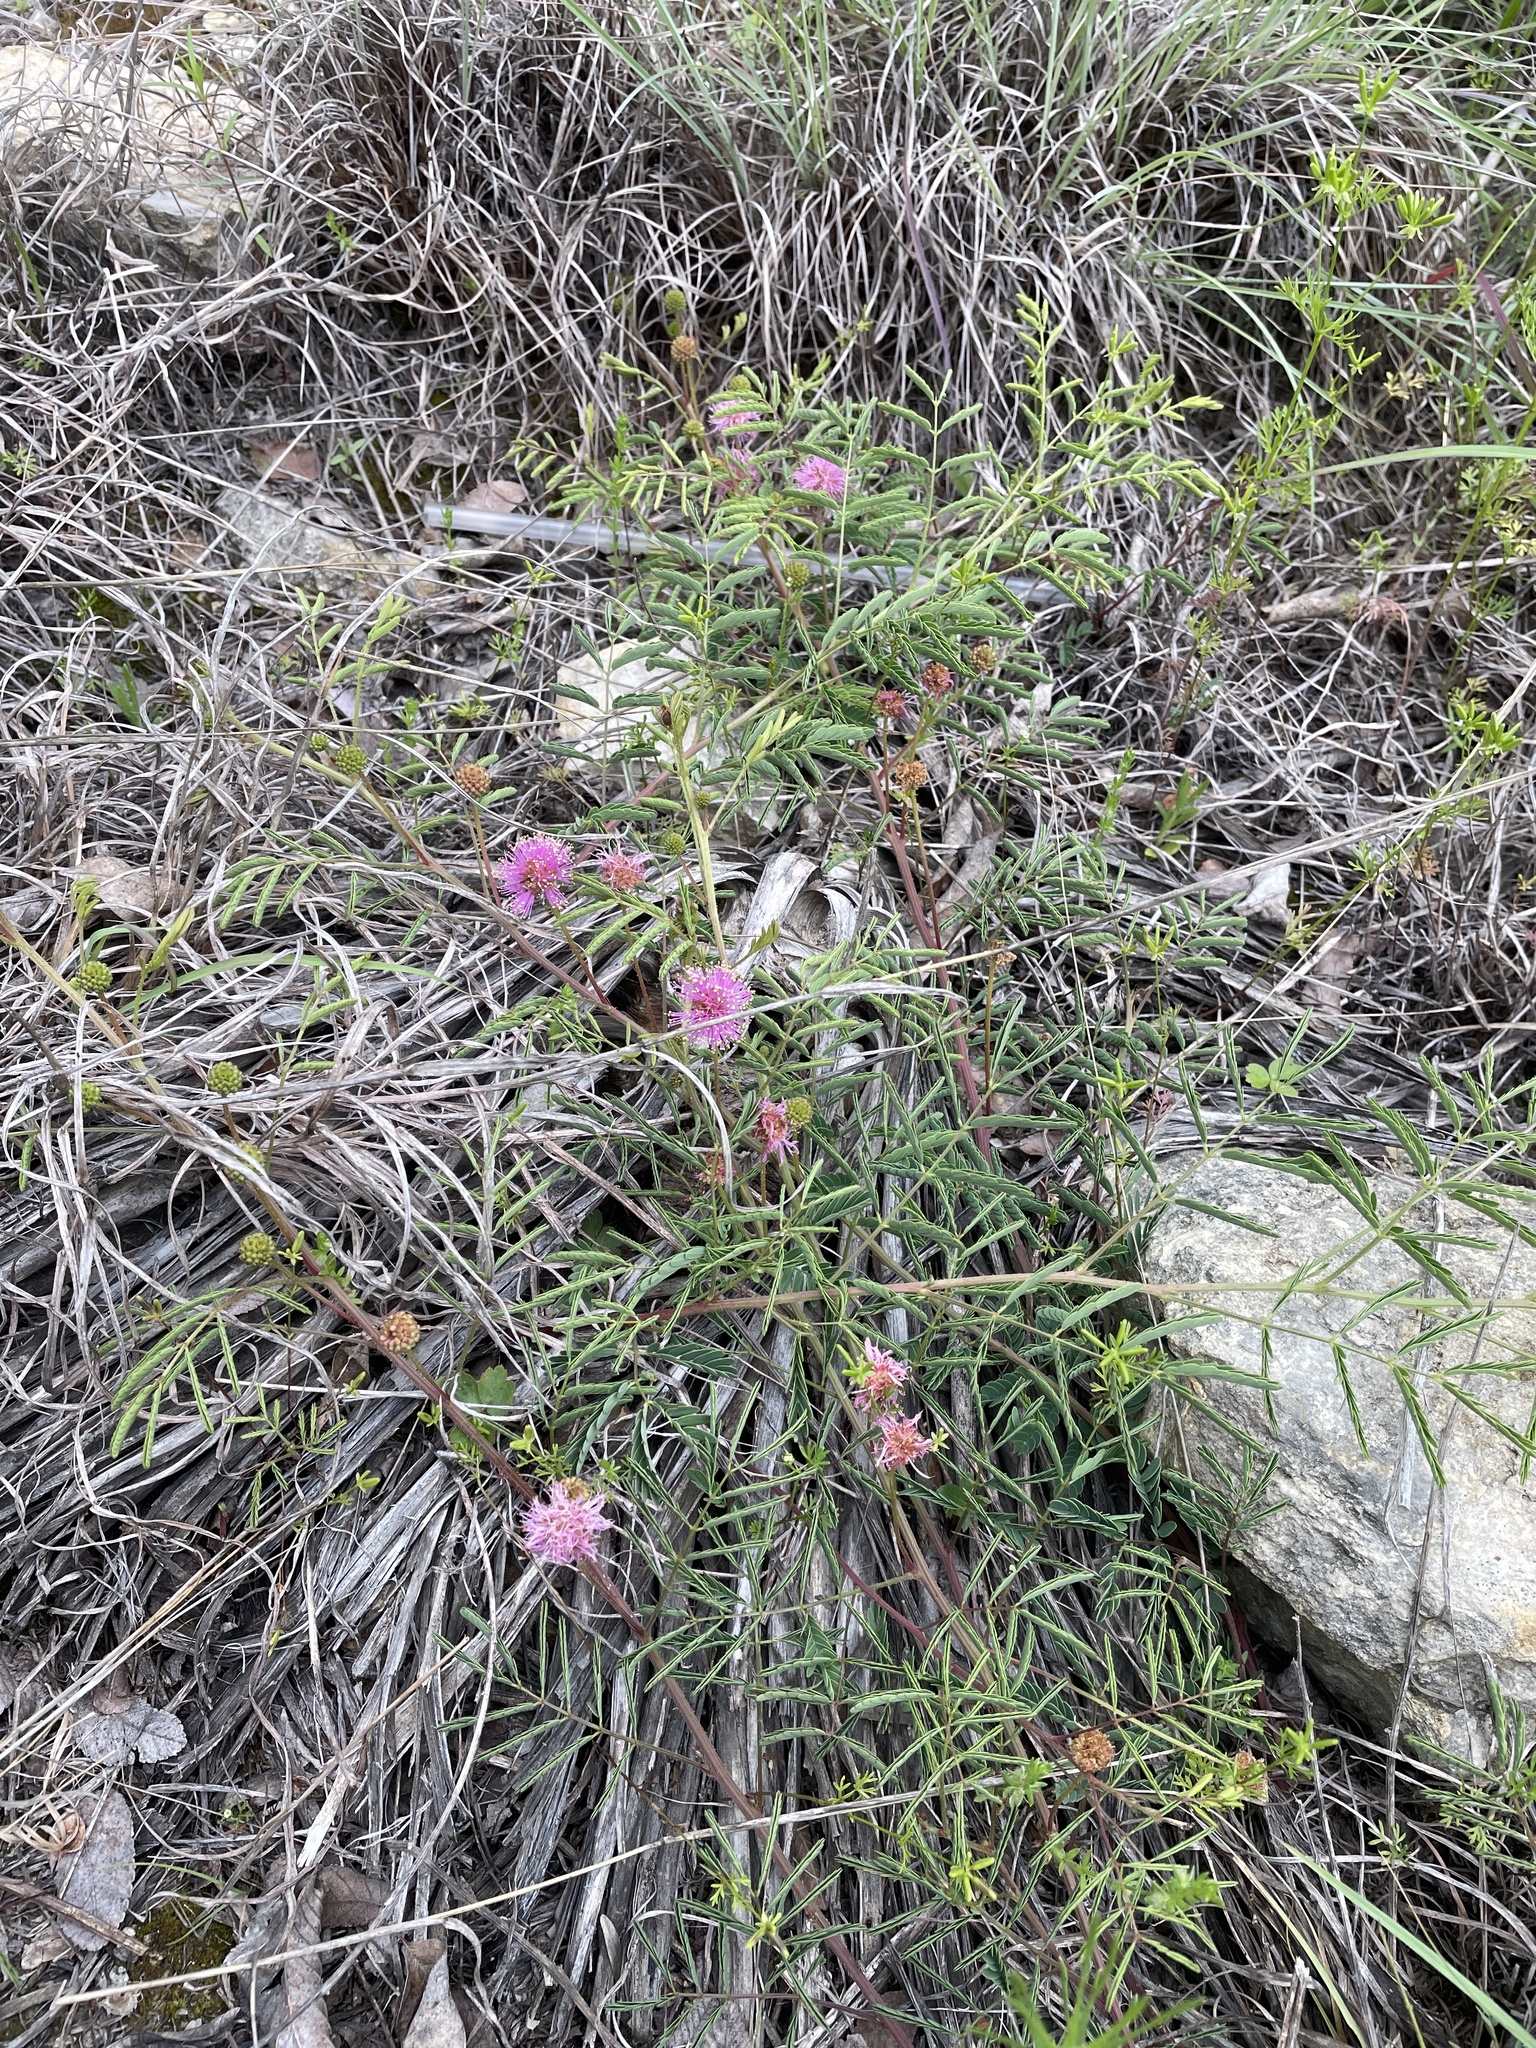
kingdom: Plantae
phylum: Tracheophyta
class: Magnoliopsida
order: Fabales
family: Fabaceae
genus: Mimosa
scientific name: Mimosa quadrivalvis
